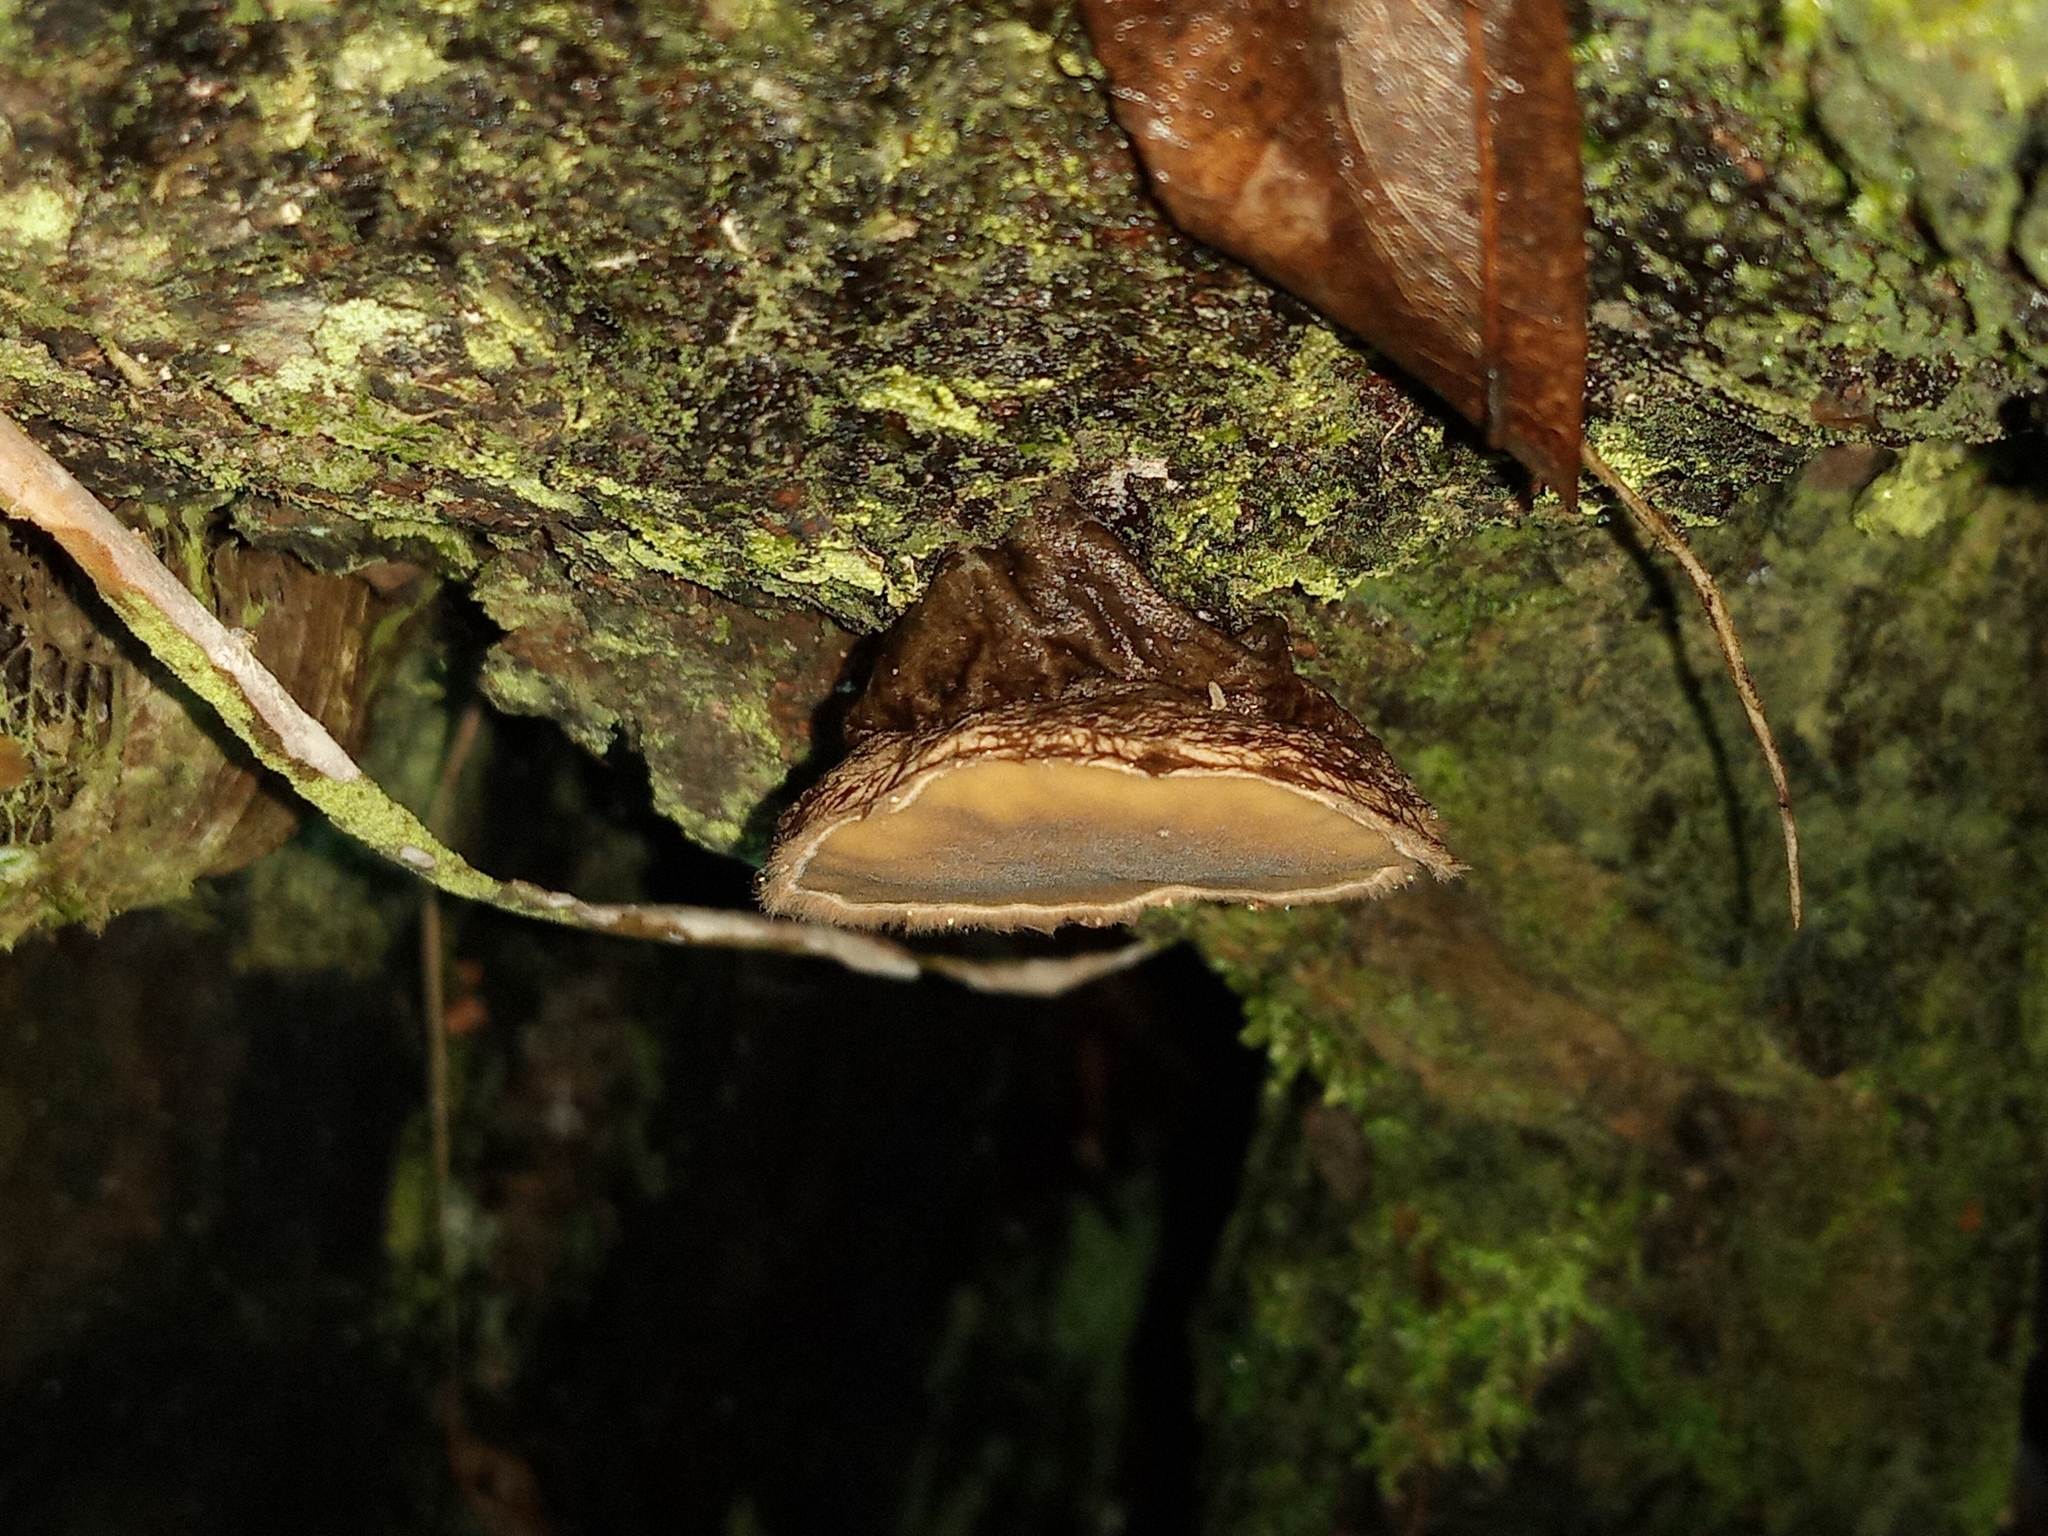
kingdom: Fungi
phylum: Ascomycota
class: Pezizomycetes
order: Pezizales
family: Pyronemataceae
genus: Trichaleurina
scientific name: Trichaleurina javanica
